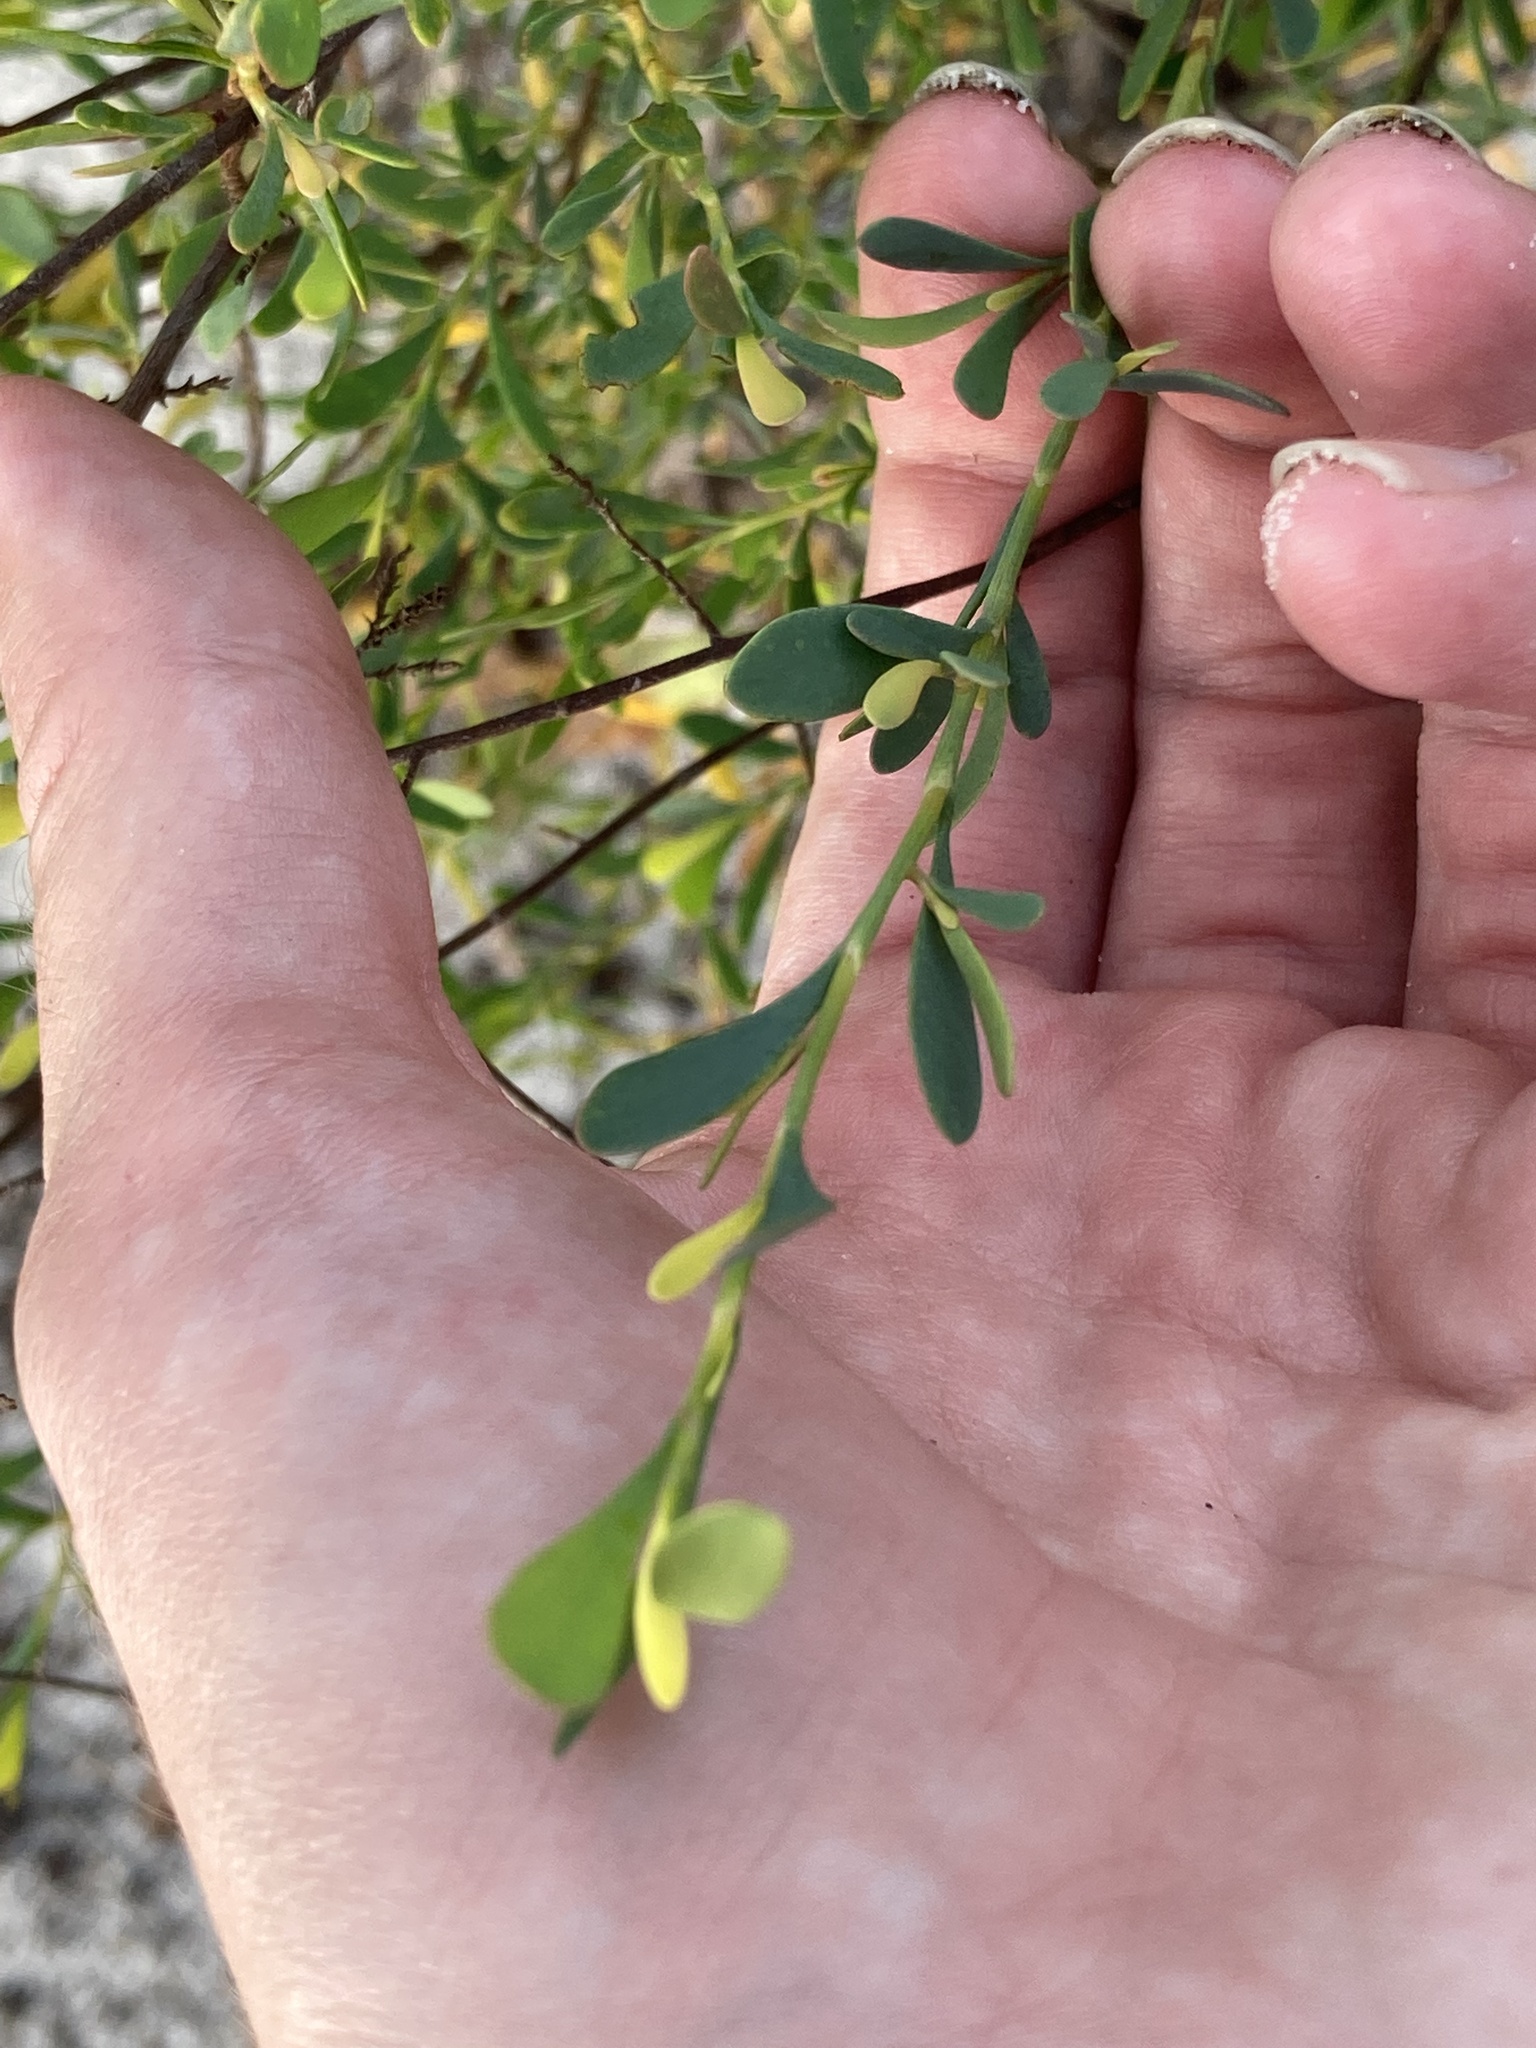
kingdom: Plantae
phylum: Tracheophyta
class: Magnoliopsida
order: Caryophyllales
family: Polygonaceae
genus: Polygonella
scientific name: Polygonella polygama
